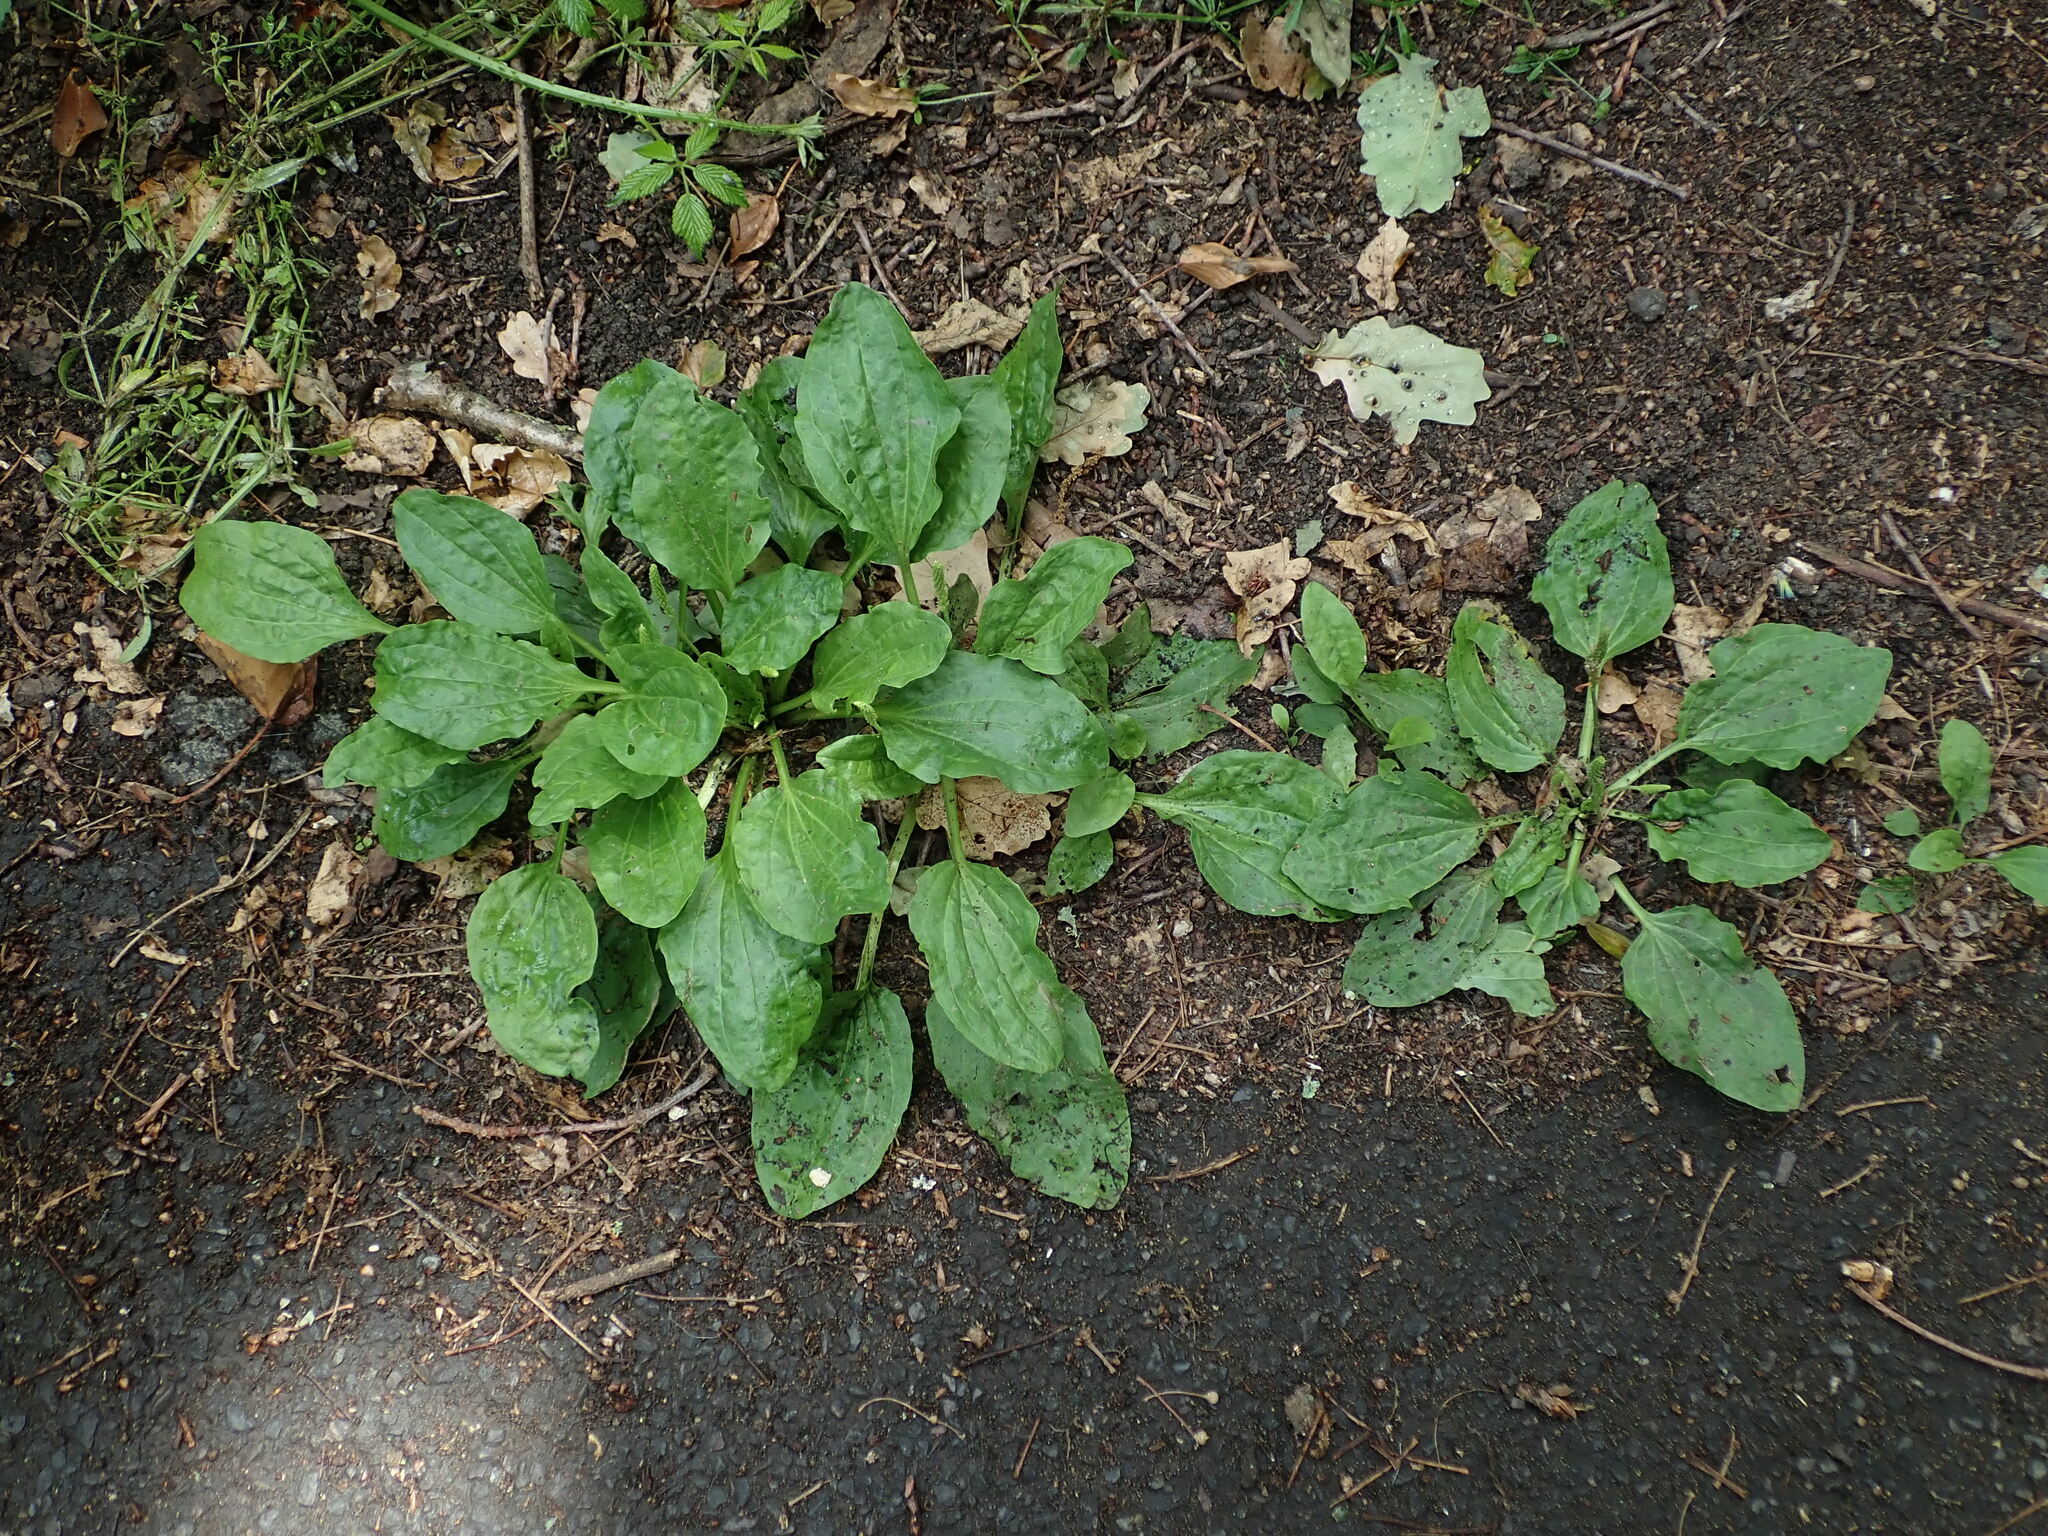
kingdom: Plantae
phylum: Tracheophyta
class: Magnoliopsida
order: Lamiales
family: Plantaginaceae
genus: Plantago
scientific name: Plantago major
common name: Common plantain
